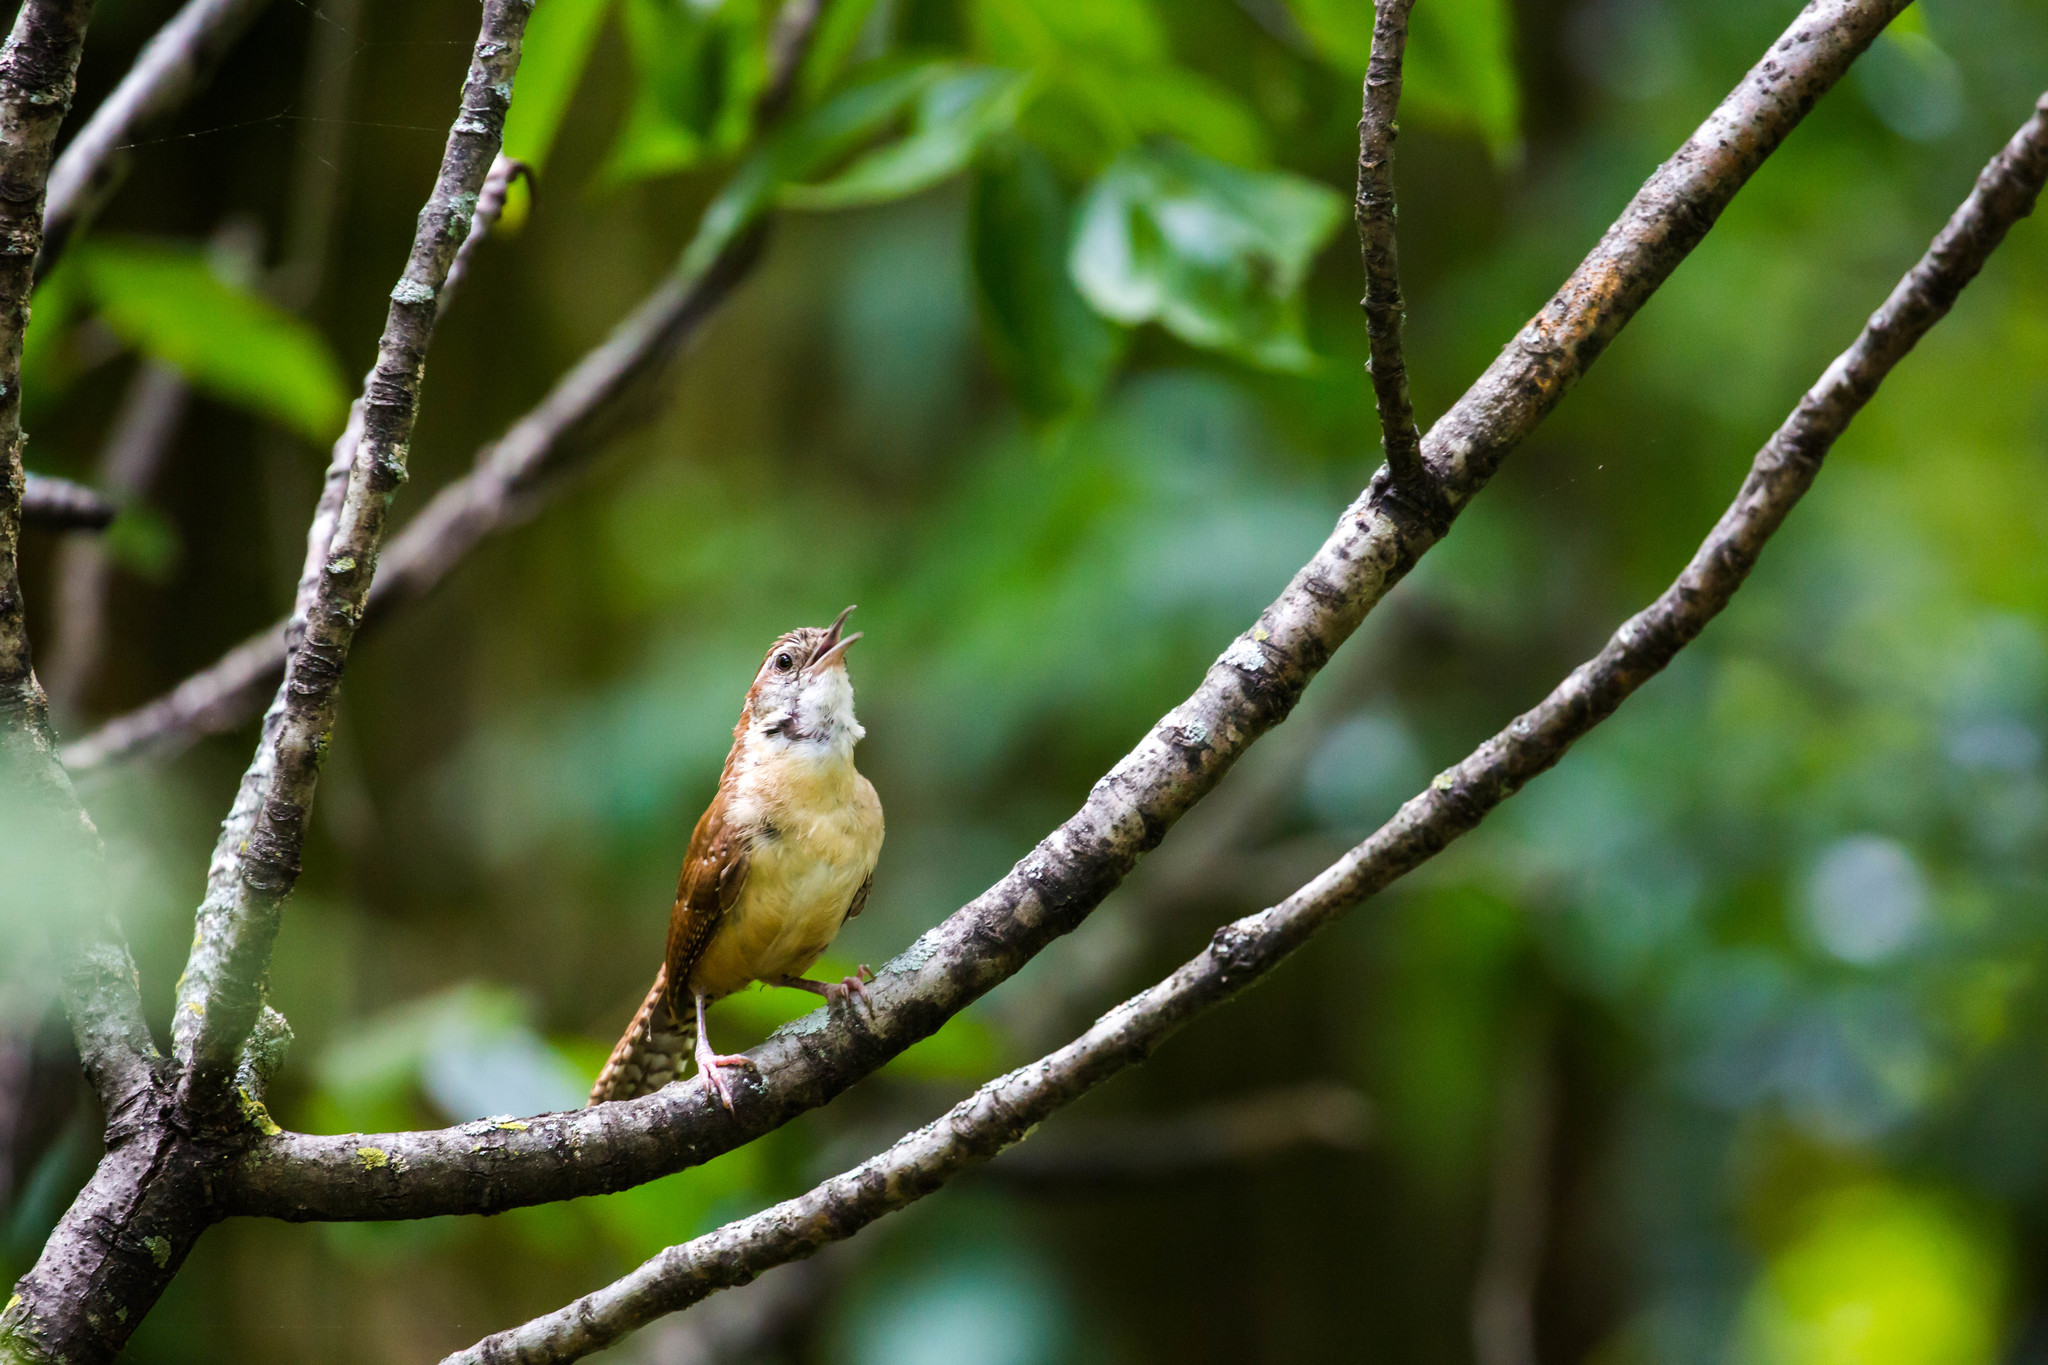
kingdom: Animalia
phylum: Chordata
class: Aves
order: Passeriformes
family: Troglodytidae
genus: Thryothorus
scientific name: Thryothorus ludovicianus
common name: Carolina wren
